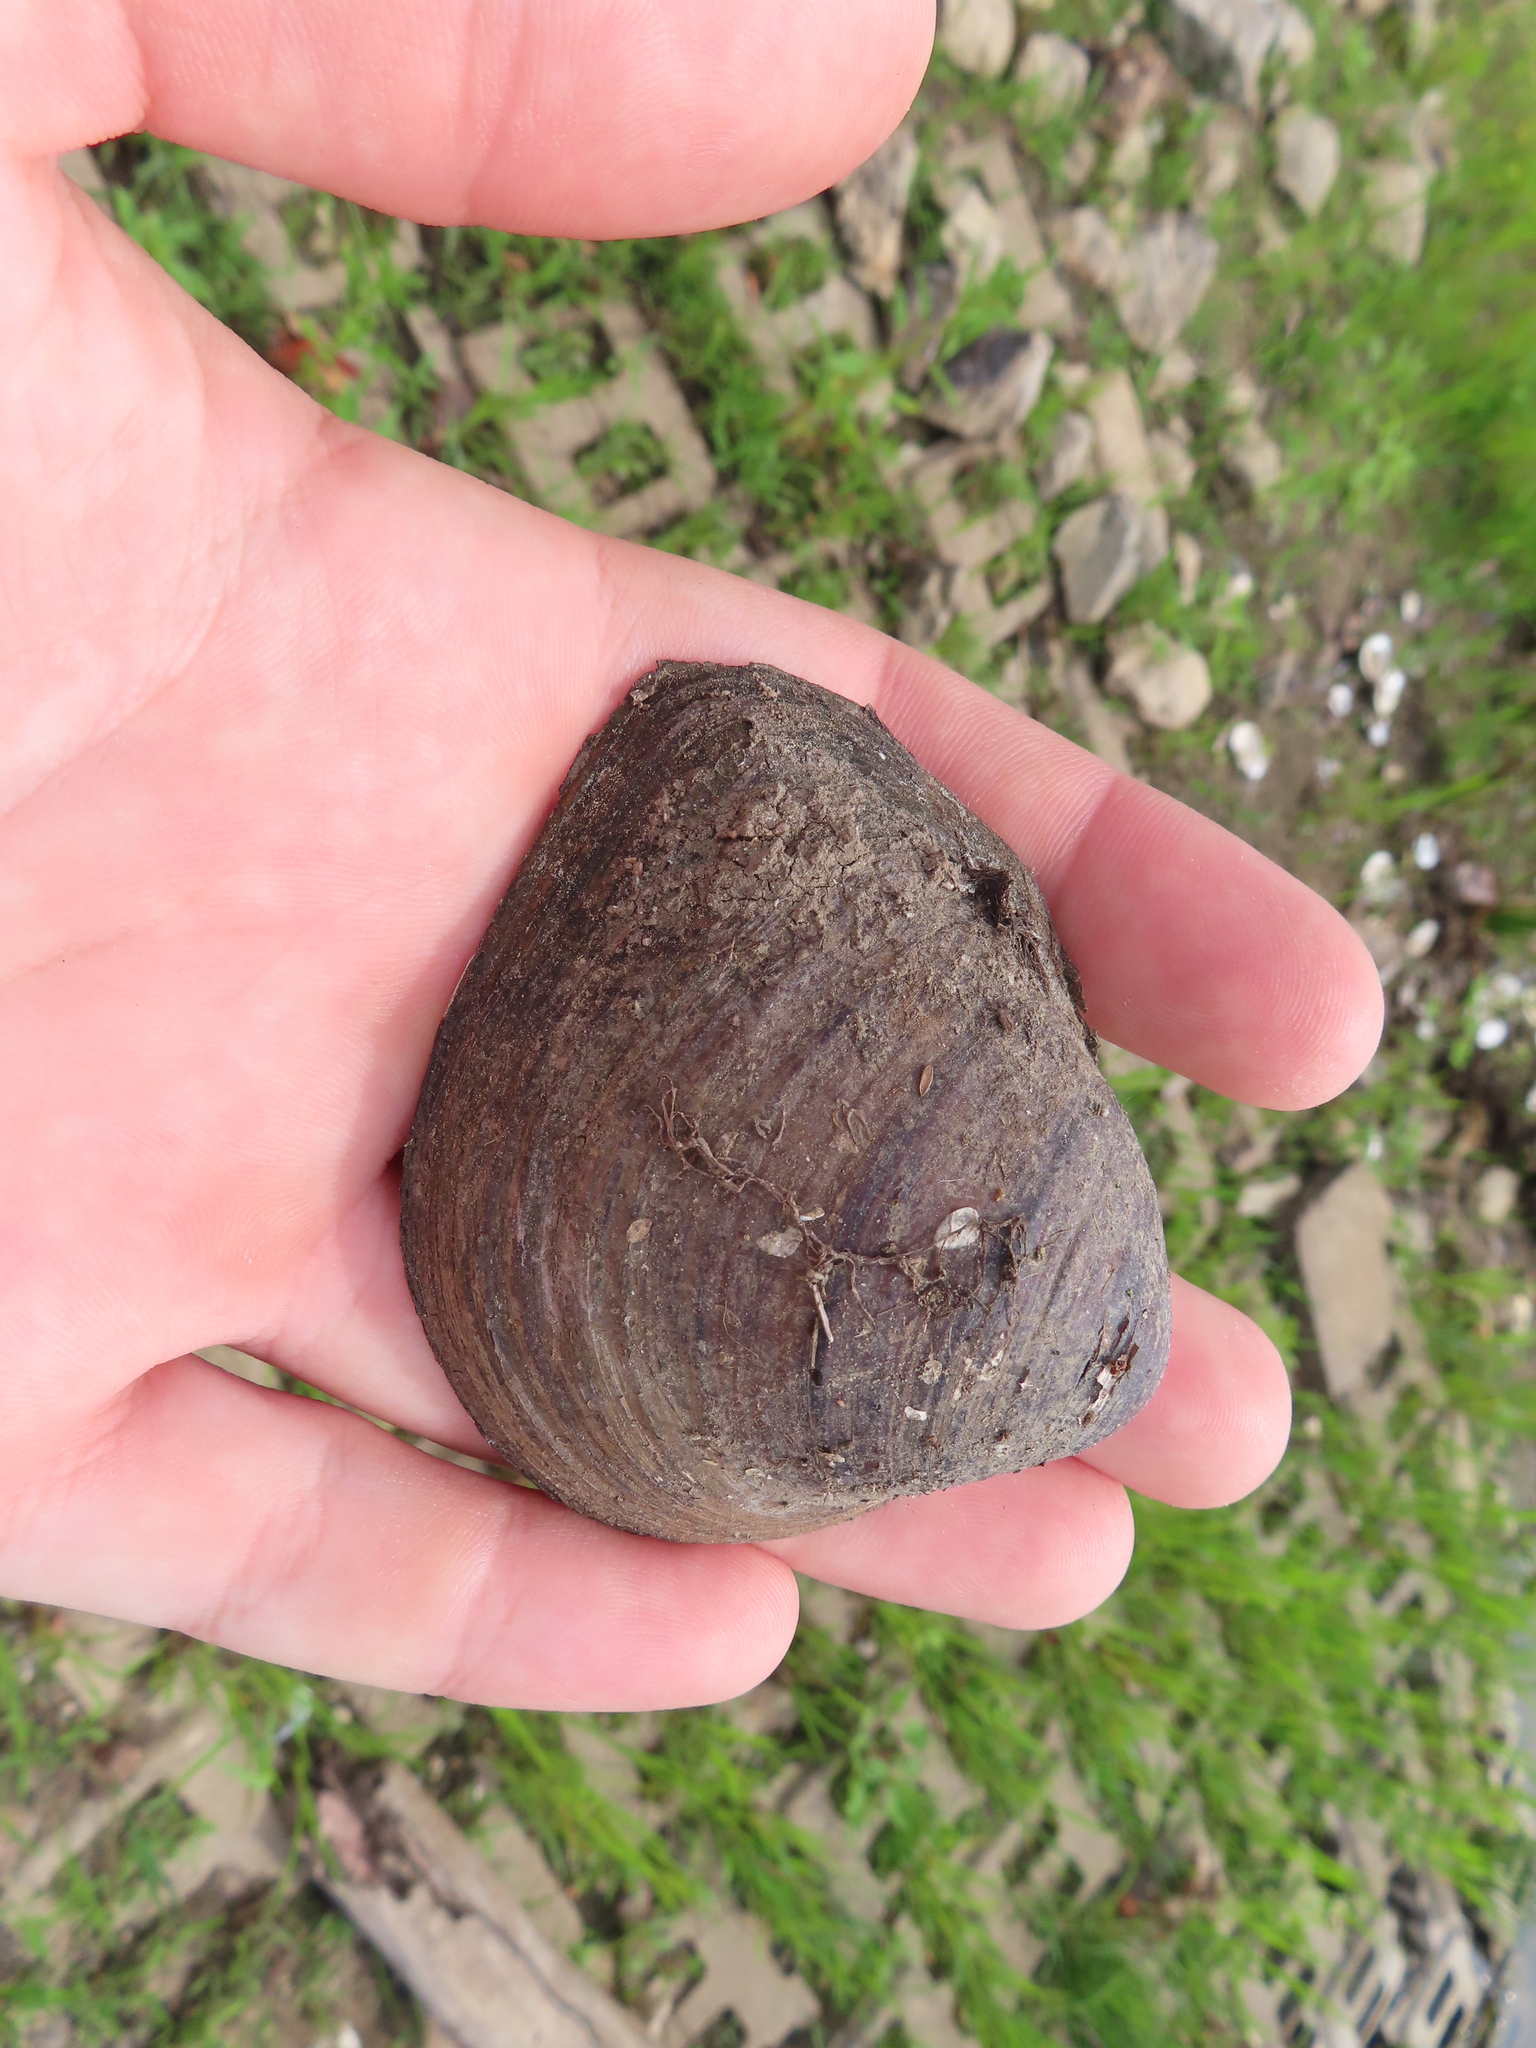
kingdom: Animalia
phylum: Mollusca
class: Bivalvia
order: Unionida
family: Unionidae
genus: Fusconaia
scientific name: Fusconaia flava
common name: Wabash pigtoe
